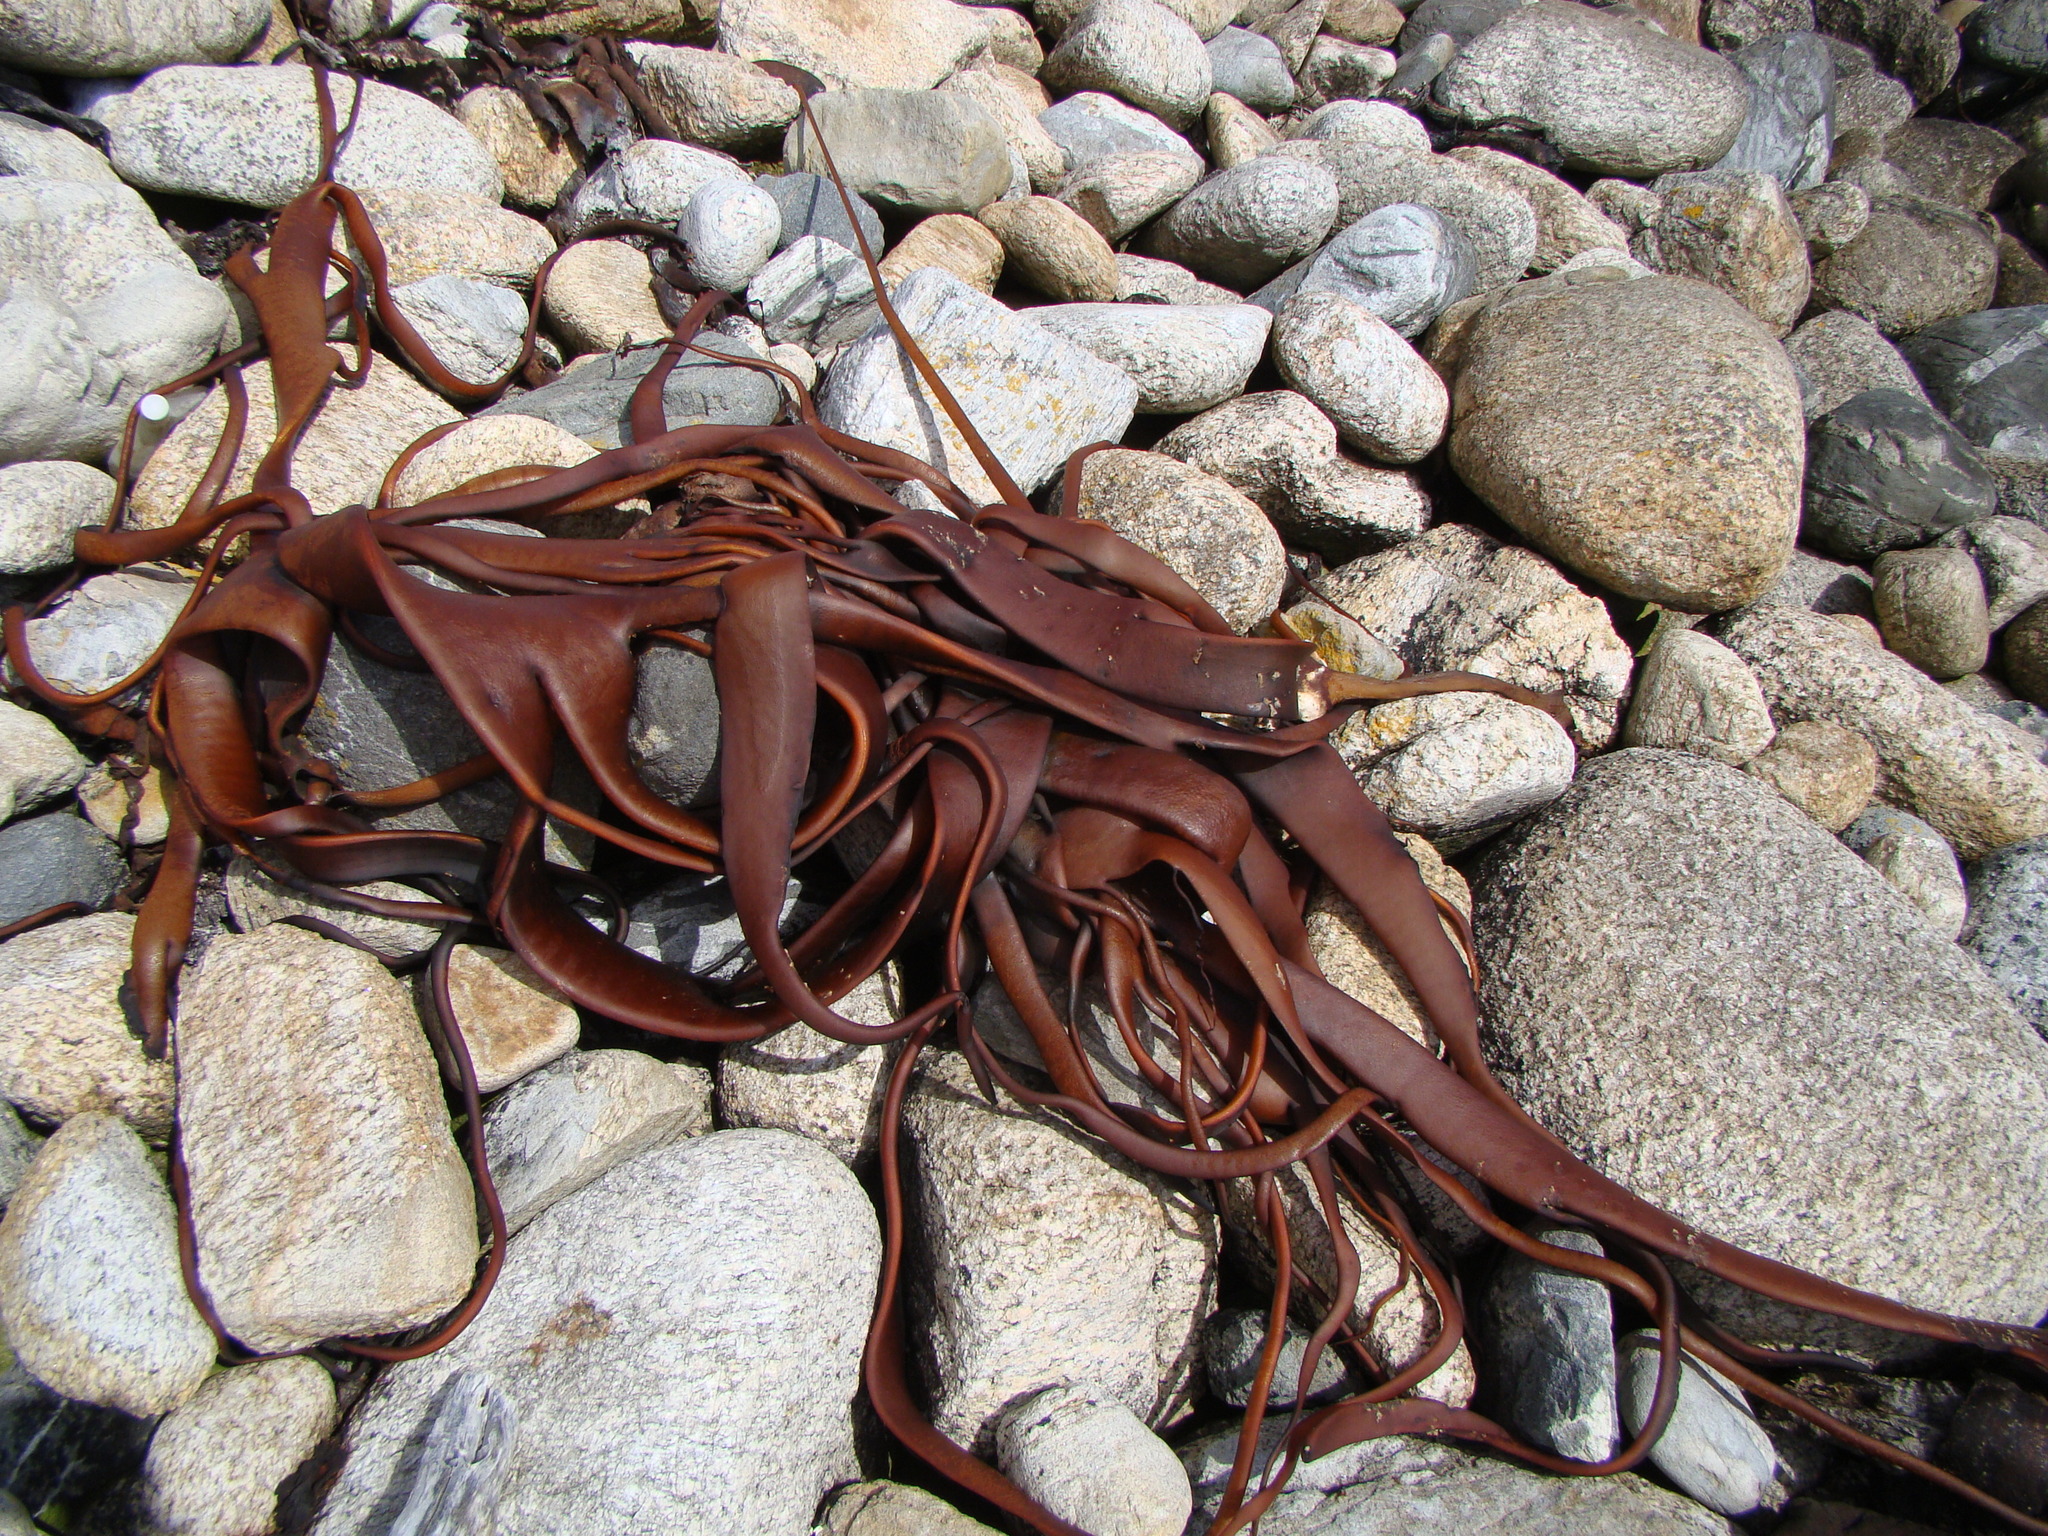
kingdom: Chromista
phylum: Ochrophyta
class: Phaeophyceae
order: Fucales
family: Durvillaeaceae
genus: Durvillaea
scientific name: Durvillaea antarctica
